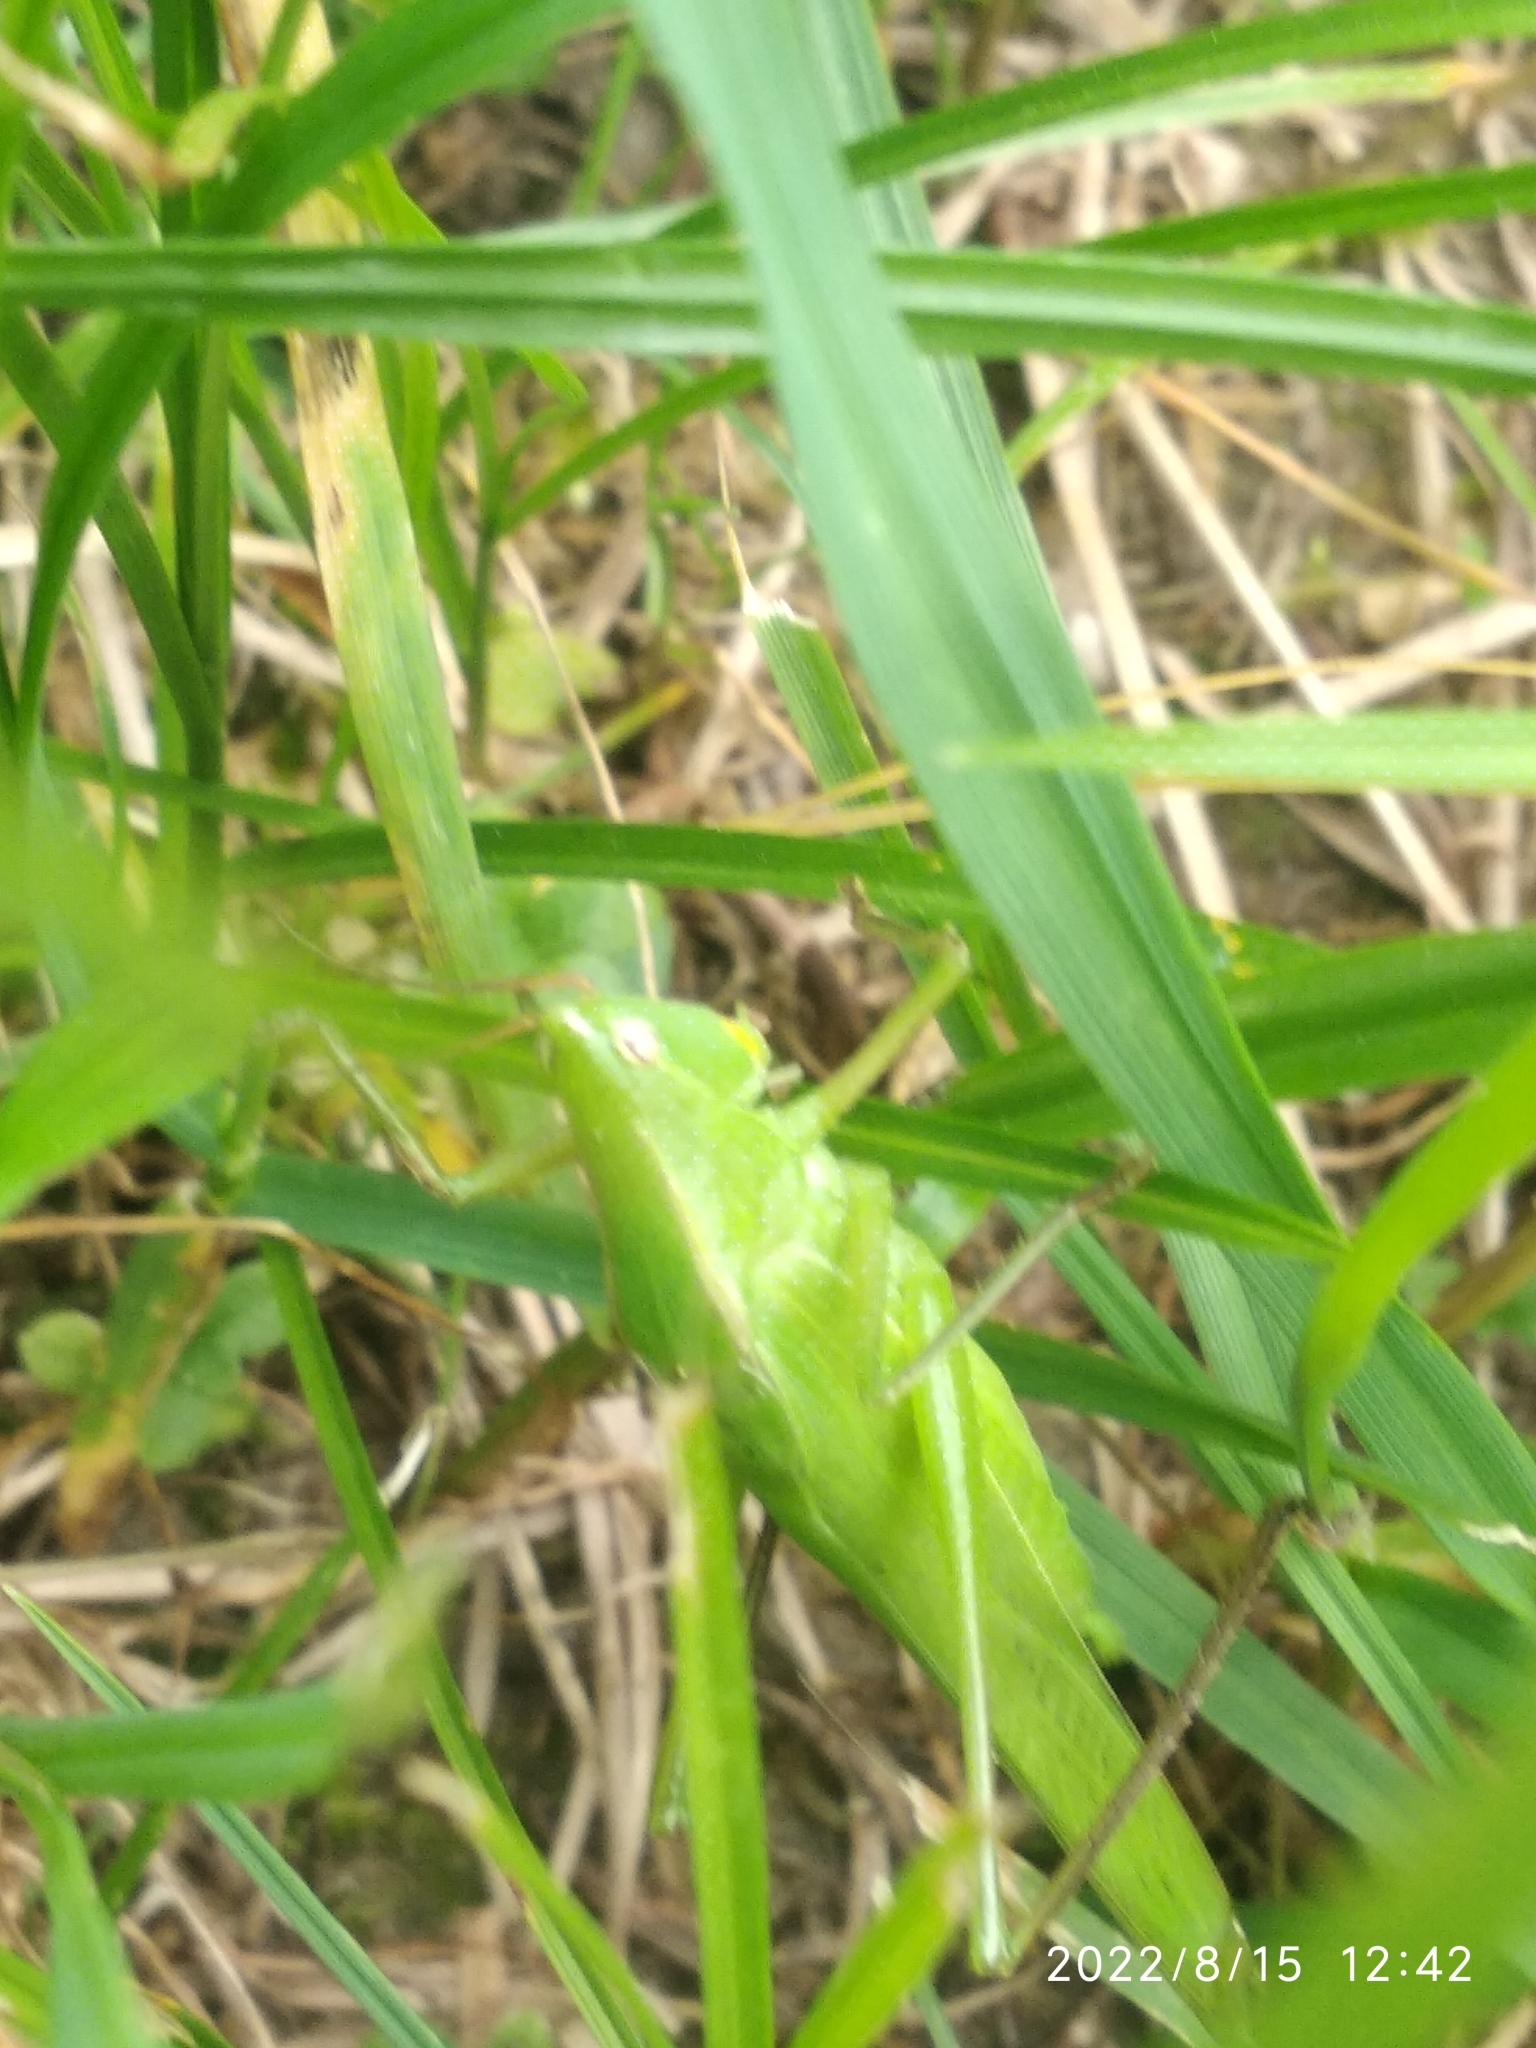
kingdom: Animalia
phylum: Arthropoda
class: Insecta
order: Orthoptera
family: Tettigoniidae
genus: Ruspolia
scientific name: Ruspolia nitidula
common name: Large conehead
